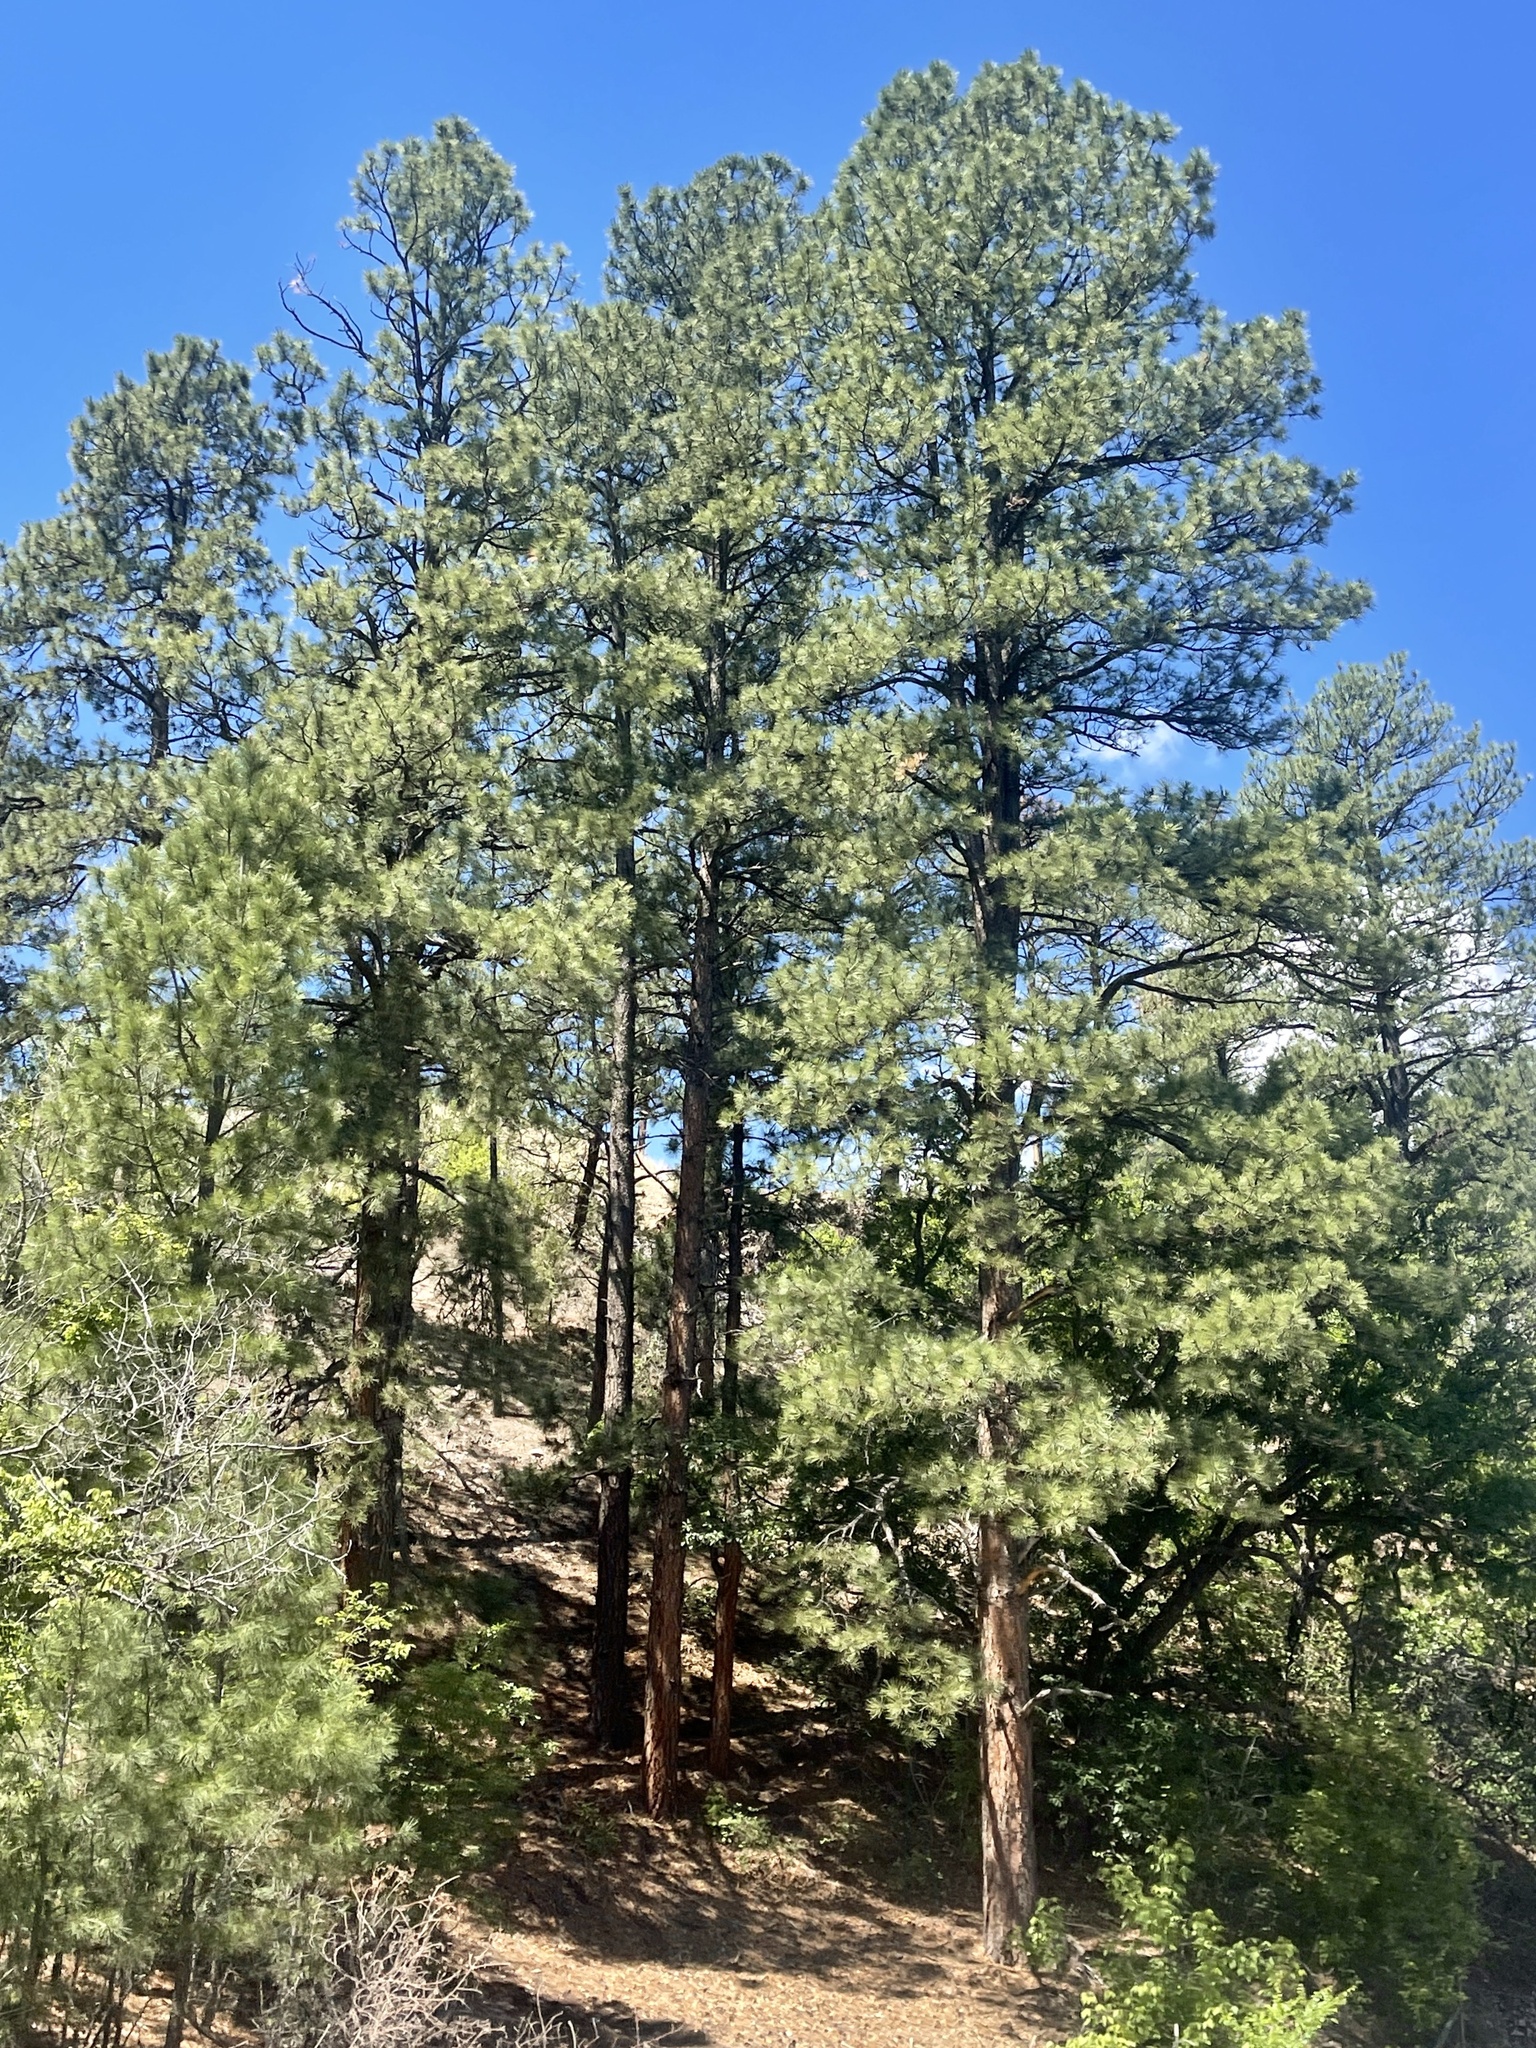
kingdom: Plantae
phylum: Tracheophyta
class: Pinopsida
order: Pinales
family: Pinaceae
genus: Pinus
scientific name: Pinus ponderosa
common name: Western yellow-pine
